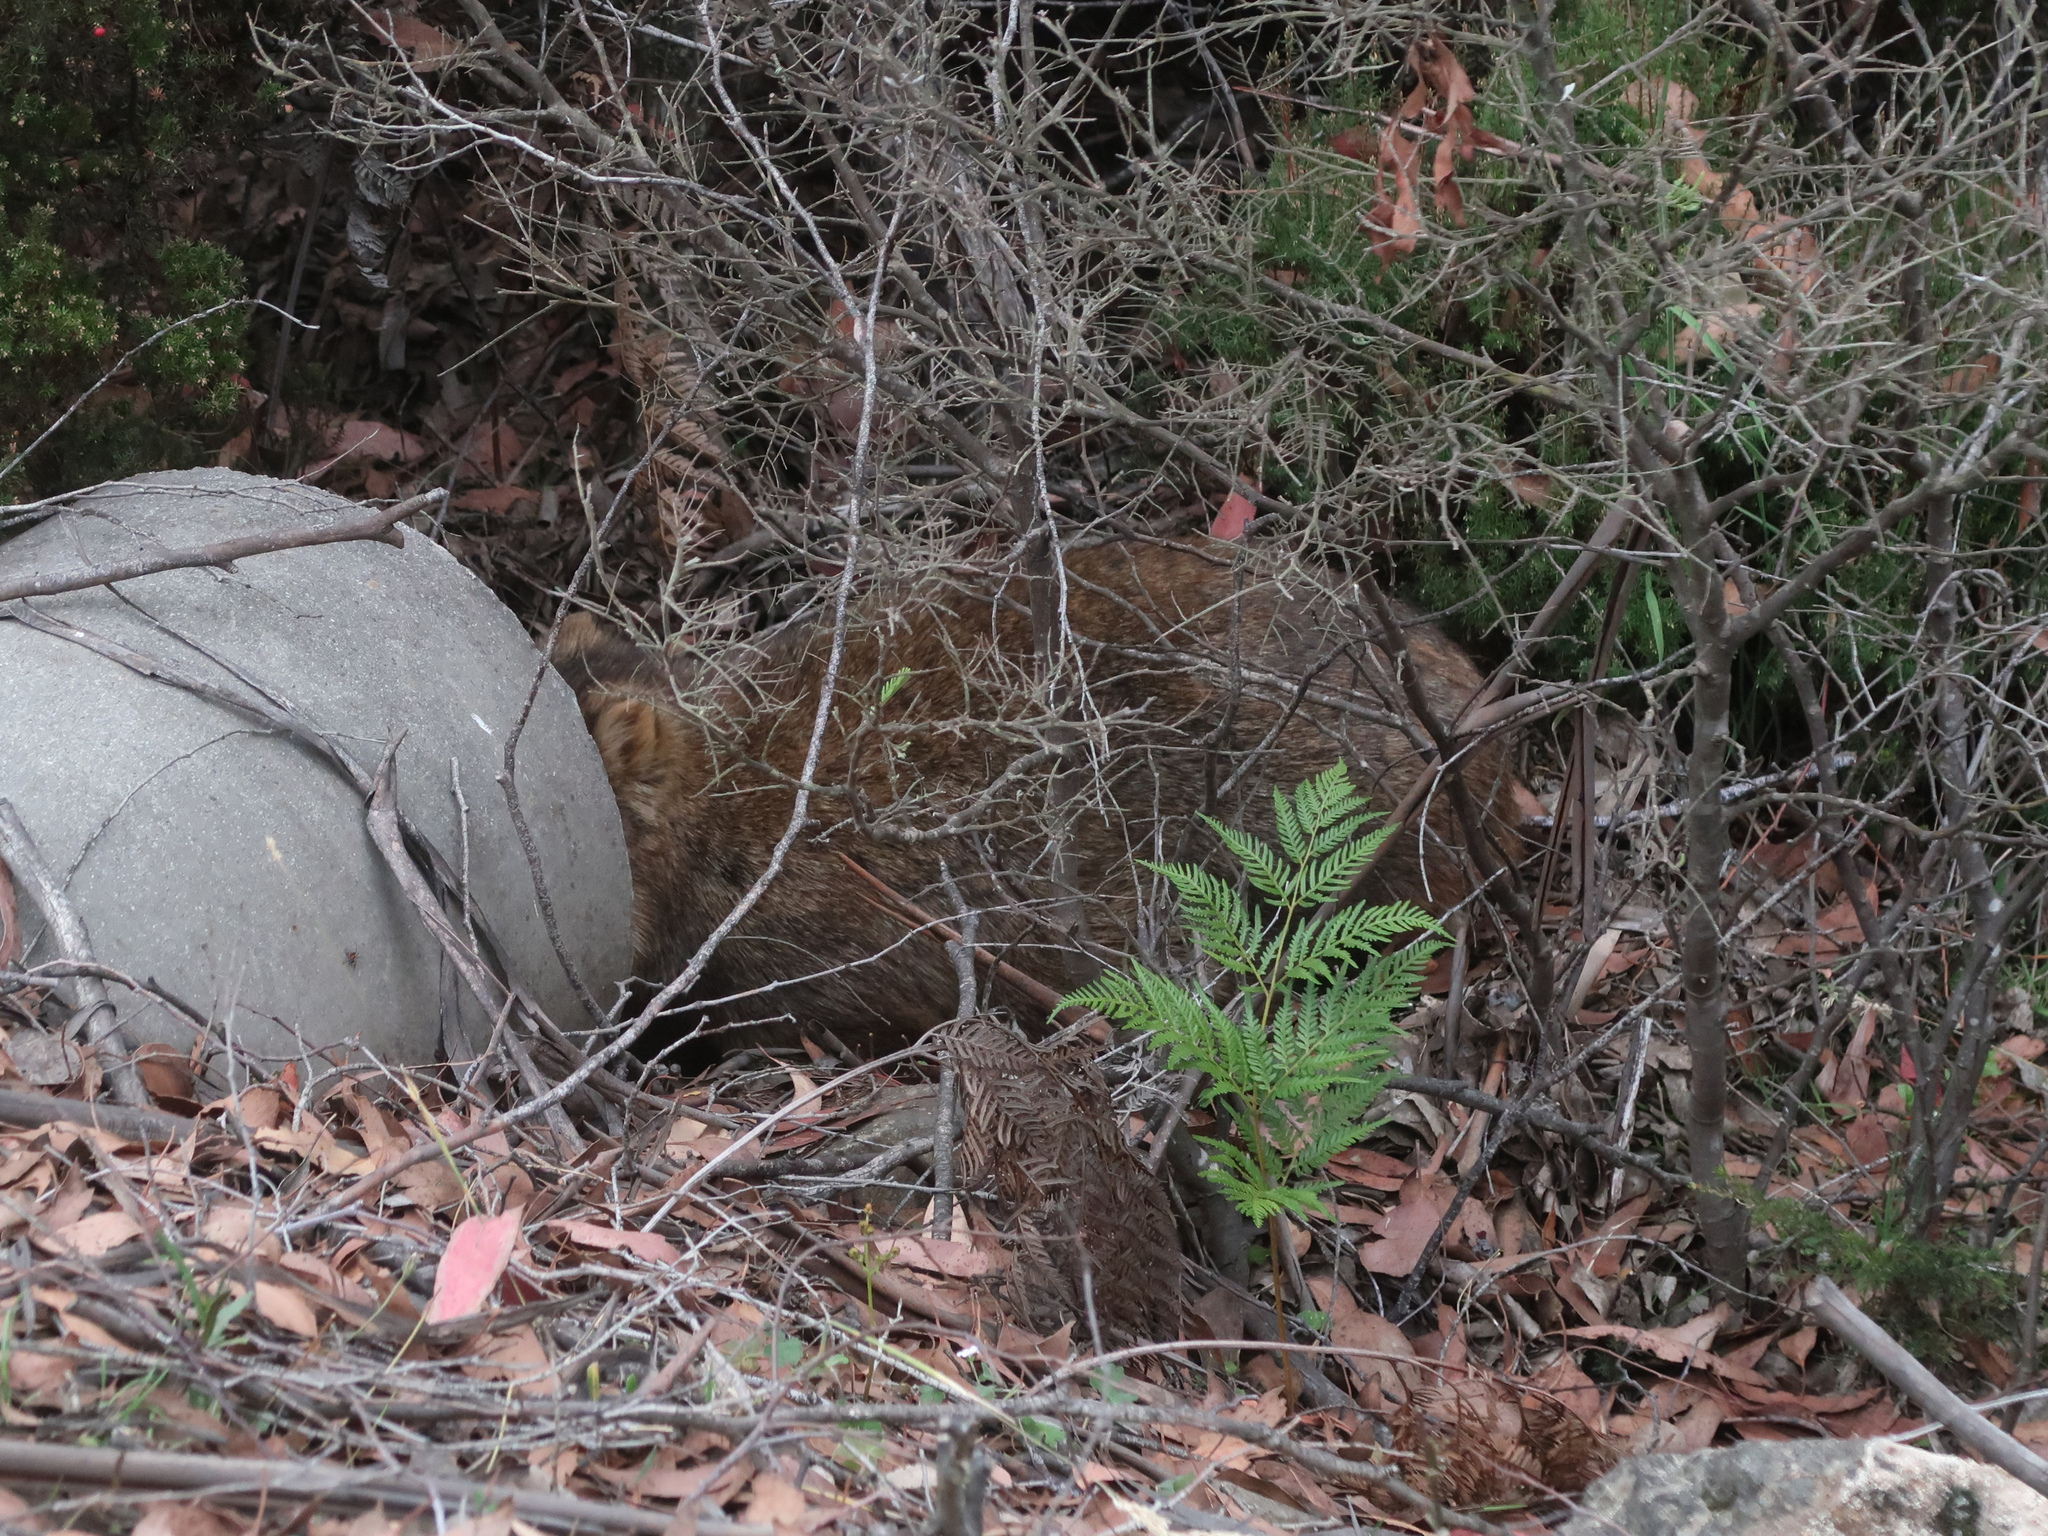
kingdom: Animalia
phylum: Chordata
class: Mammalia
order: Diprotodontia
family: Vombatidae
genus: Vombatus
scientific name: Vombatus ursinus
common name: Common wombat
